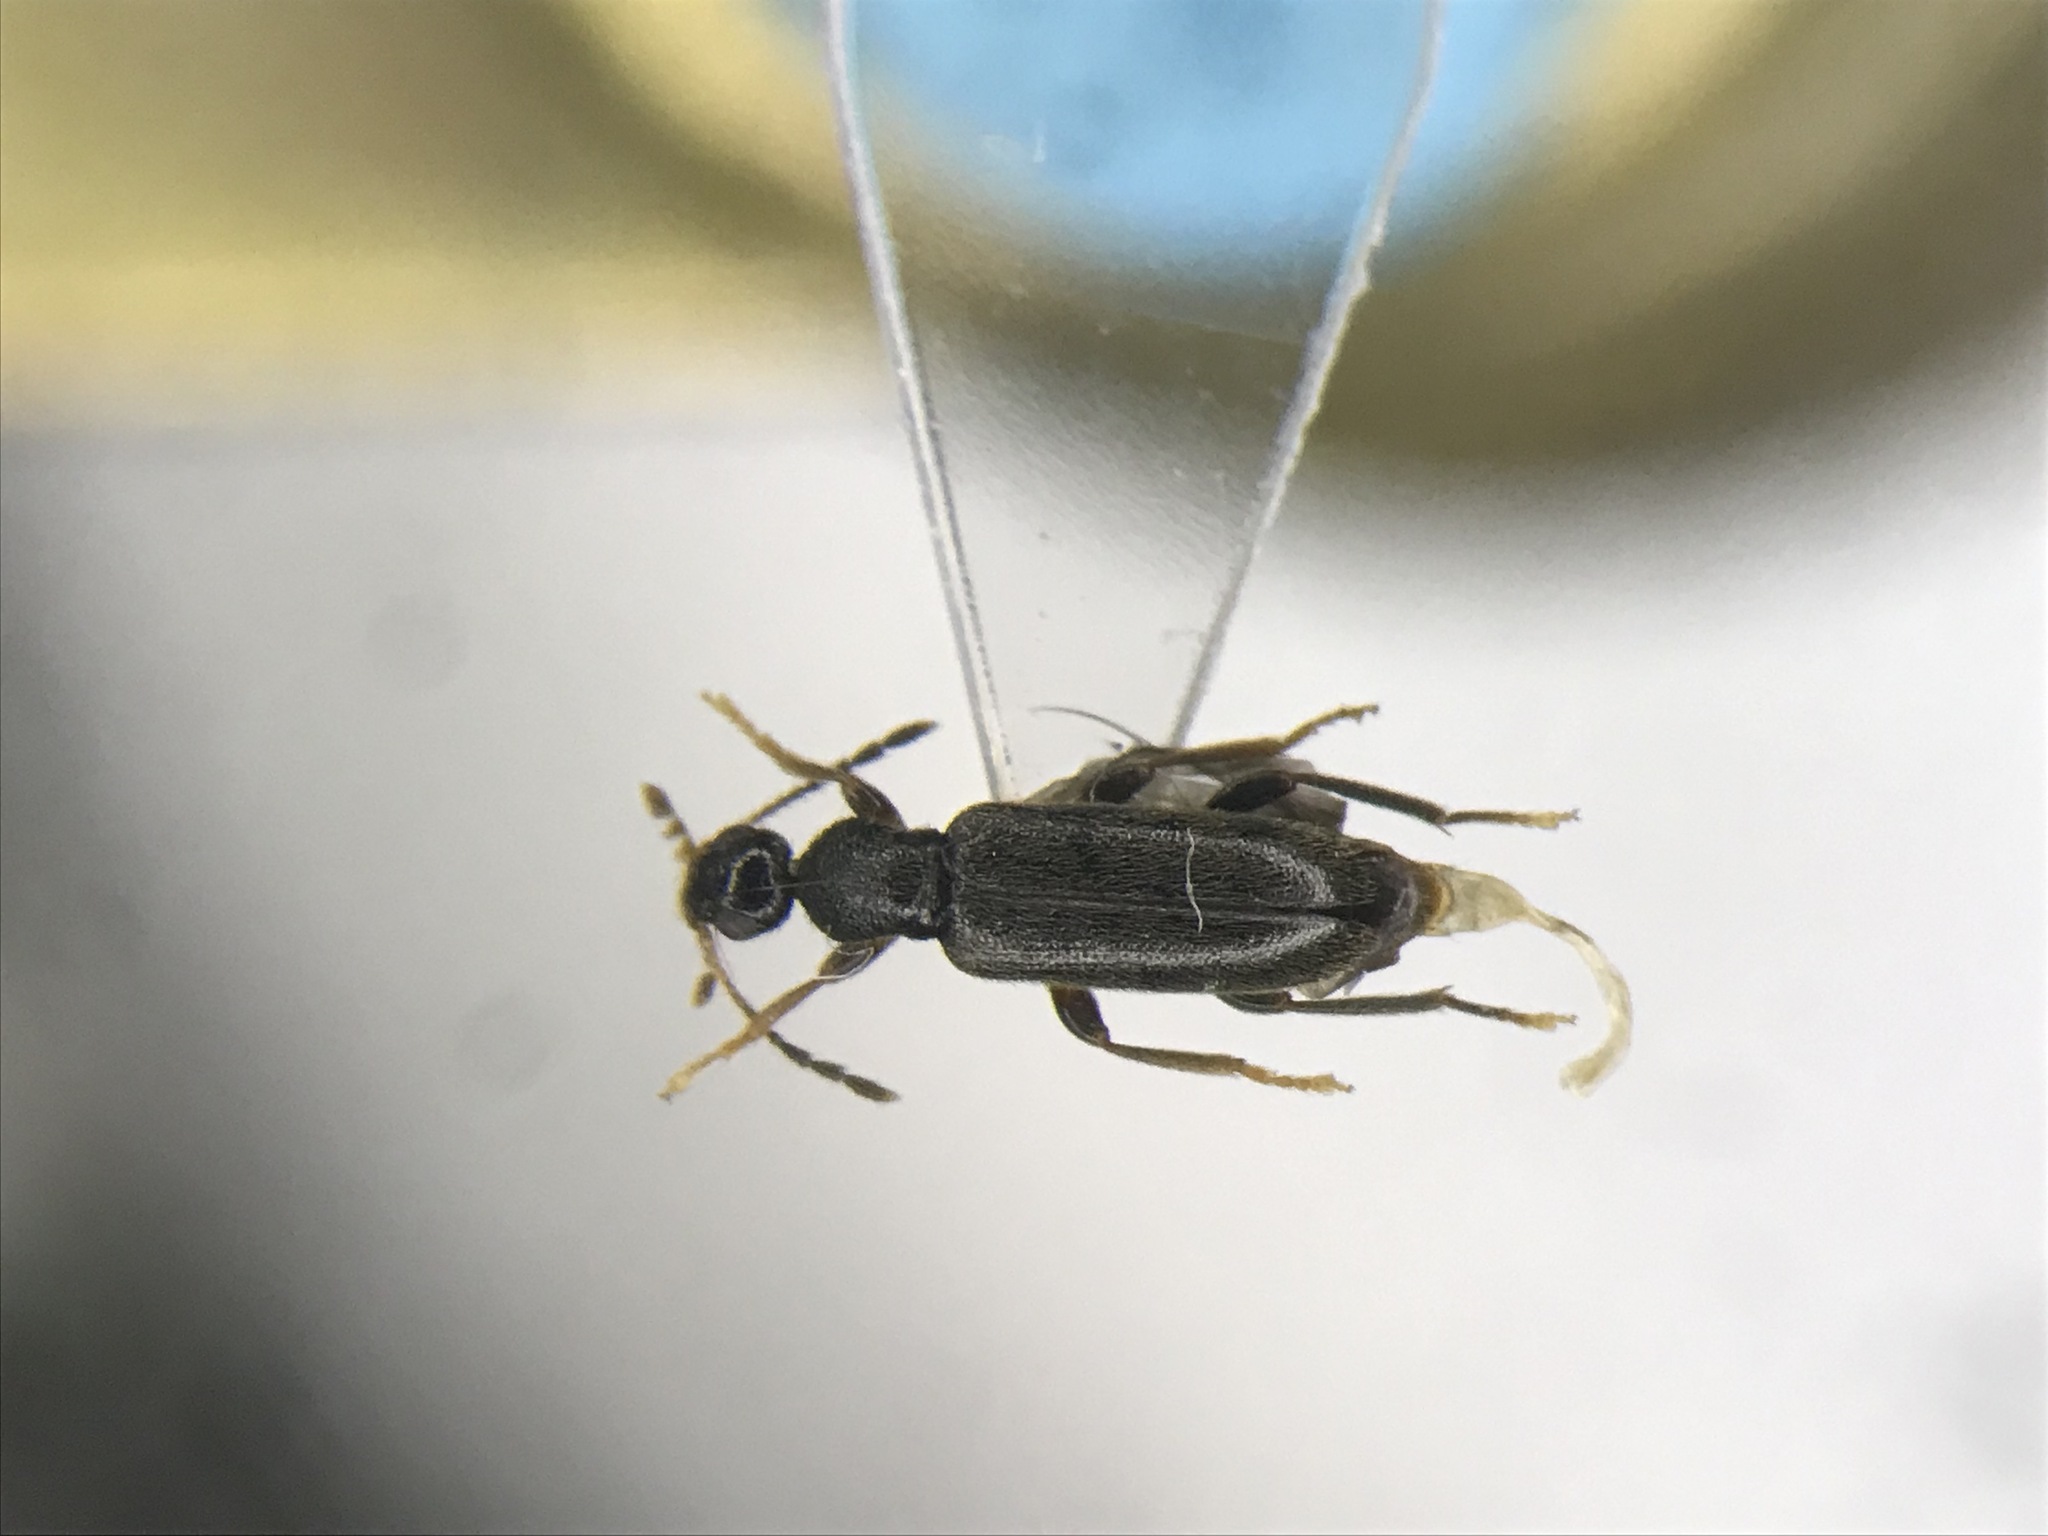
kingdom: Animalia
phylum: Arthropoda
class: Insecta
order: Coleoptera
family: Anthicidae
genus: Macratria
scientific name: Macratria confusa
